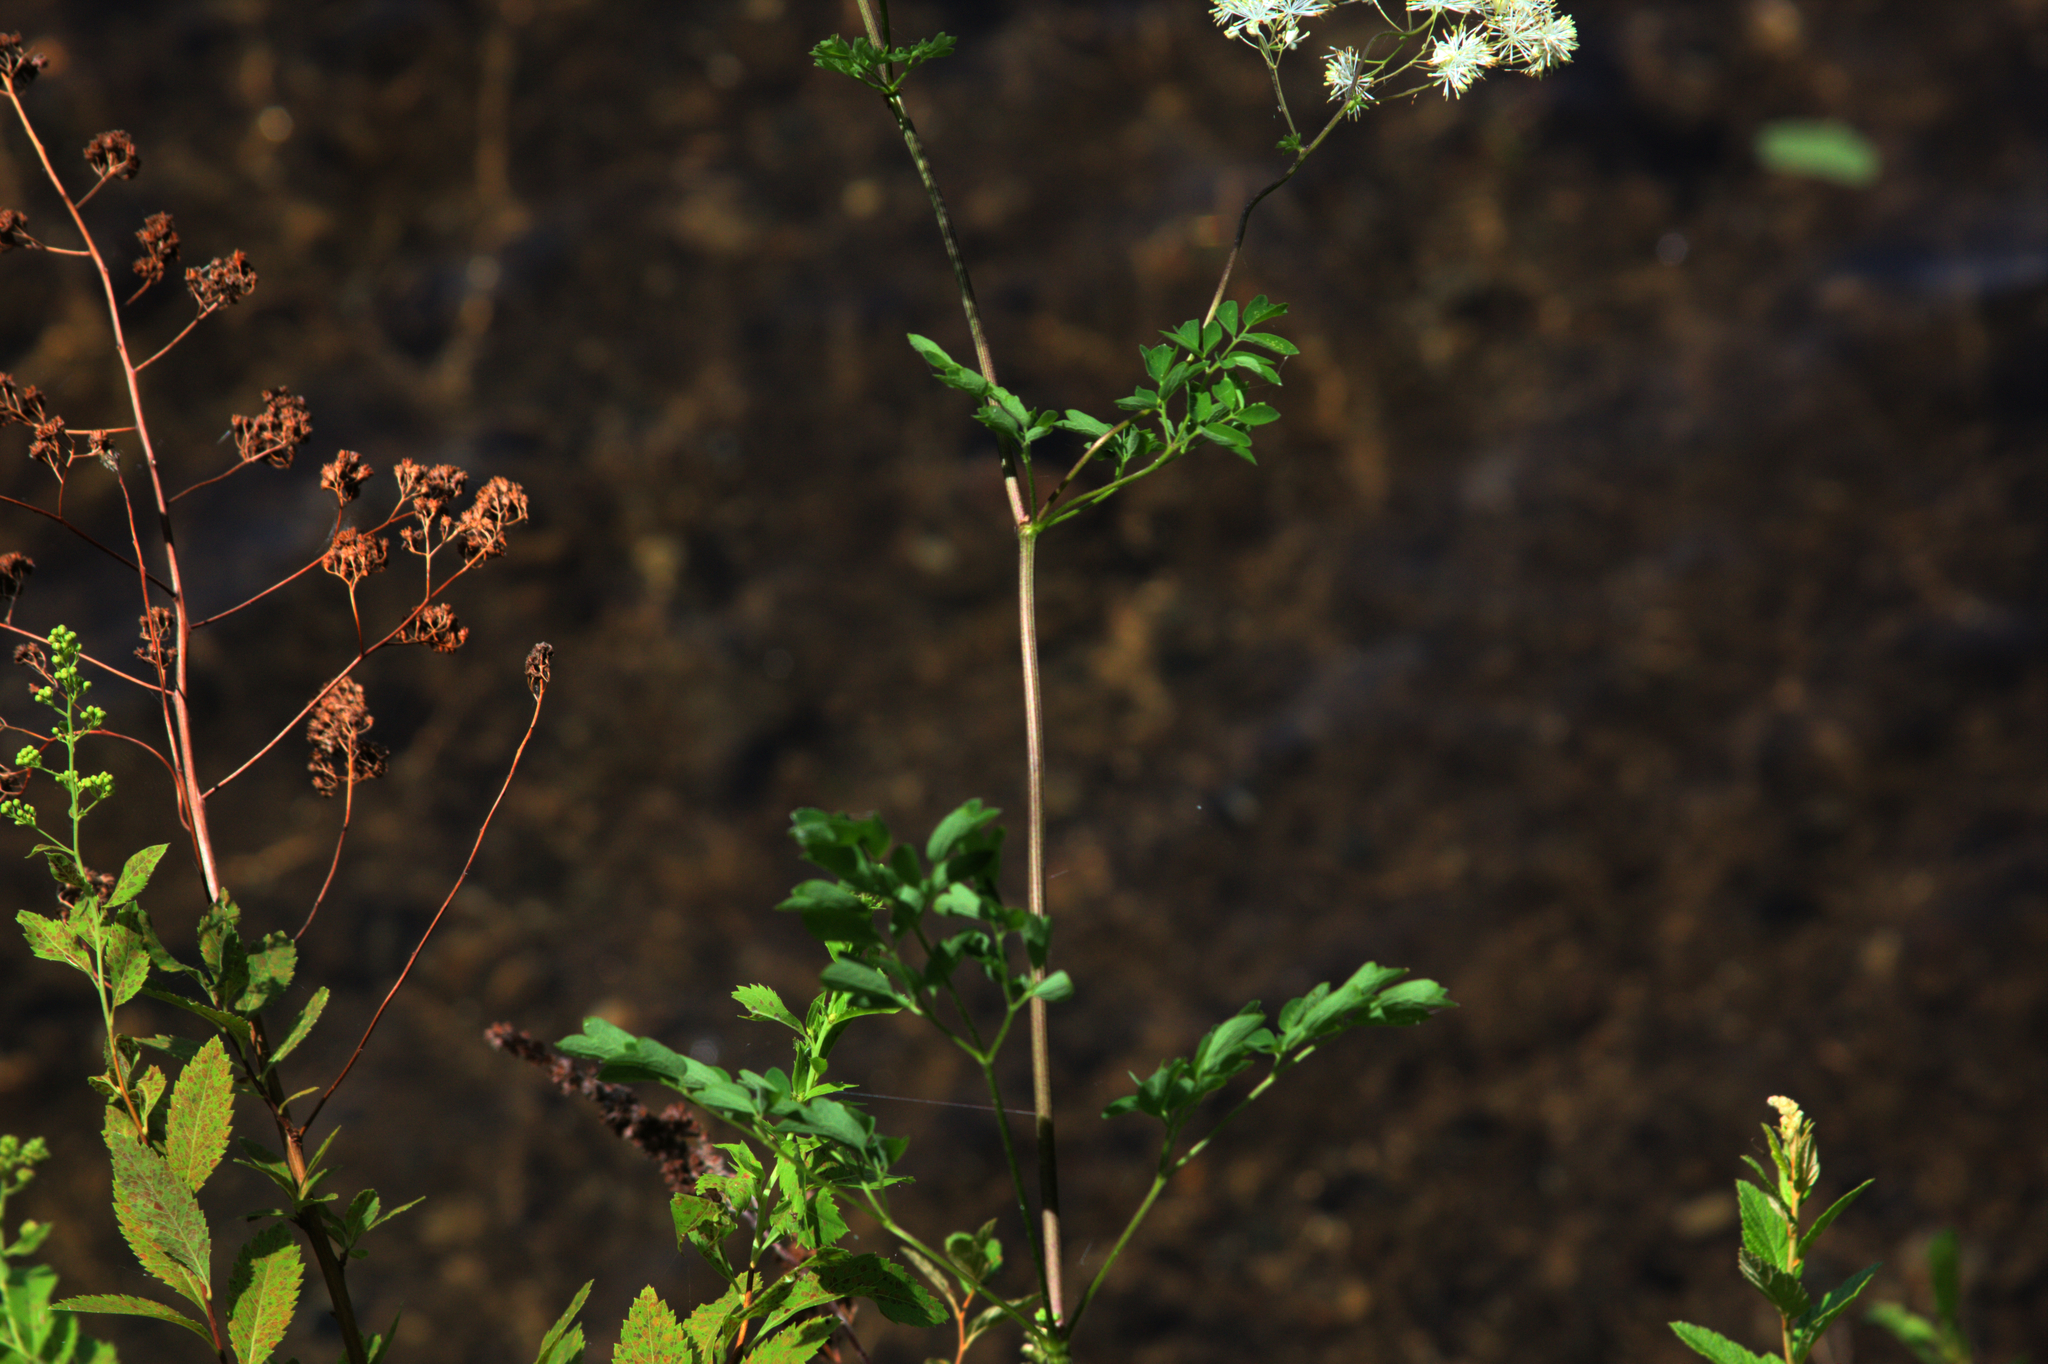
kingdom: Plantae
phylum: Tracheophyta
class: Magnoliopsida
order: Ranunculales
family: Ranunculaceae
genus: Thalictrum
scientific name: Thalictrum pubescens
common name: King-of-the-meadow
